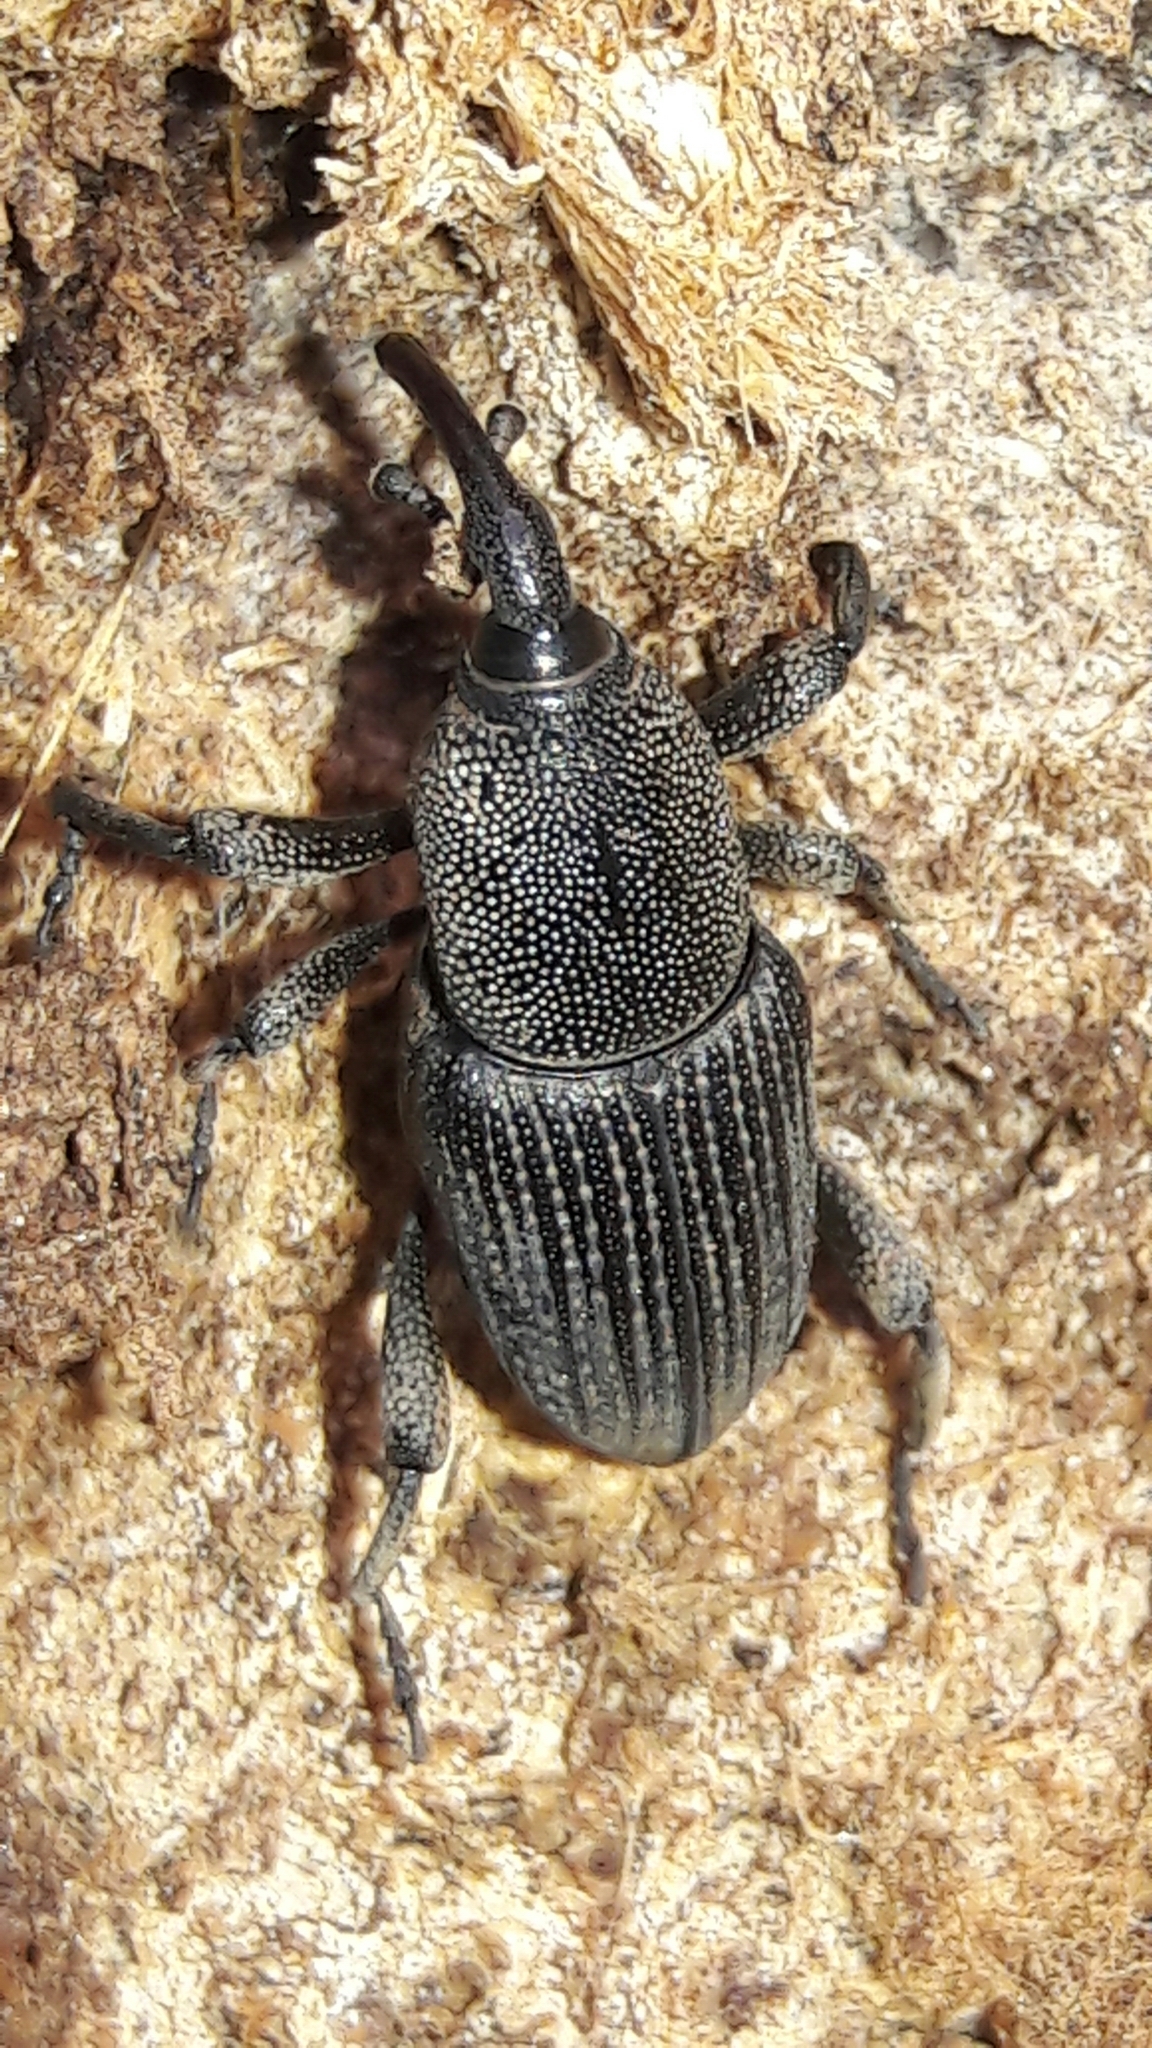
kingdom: Animalia
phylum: Arthropoda
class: Insecta
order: Coleoptera
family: Dryophthoridae
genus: Cosmopolites
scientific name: Cosmopolites sordidus
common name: Palm weevil
